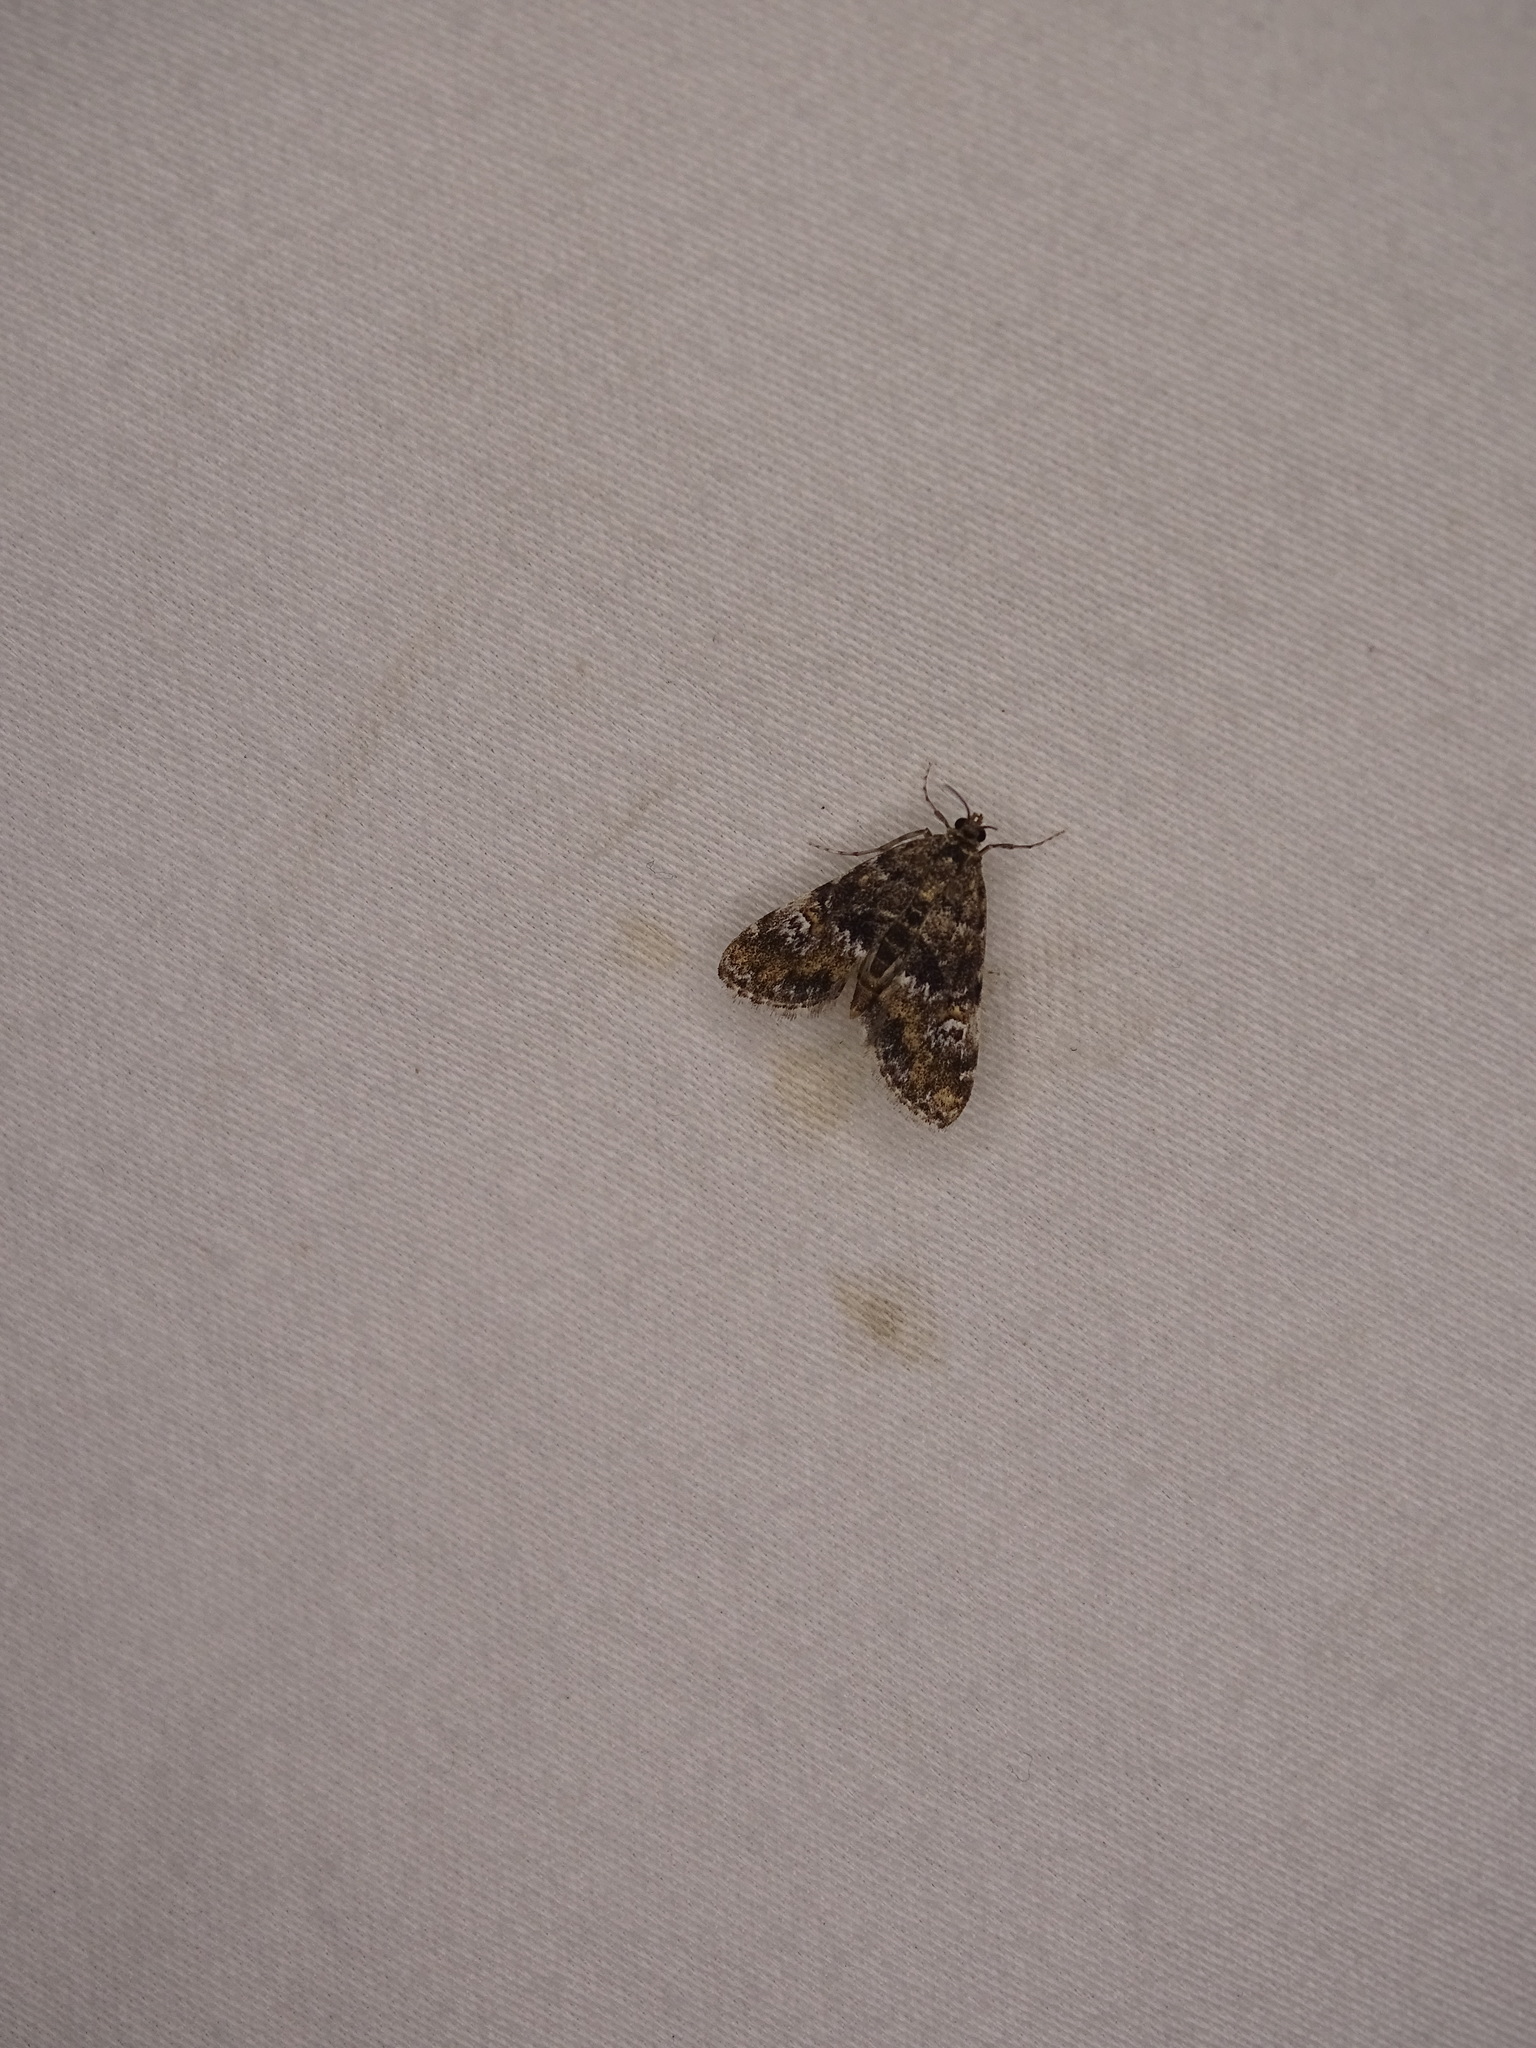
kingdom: Animalia
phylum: Arthropoda
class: Insecta
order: Lepidoptera
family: Crambidae
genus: Elophila
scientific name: Elophila obliteralis
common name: Waterlily leafcutter moth
